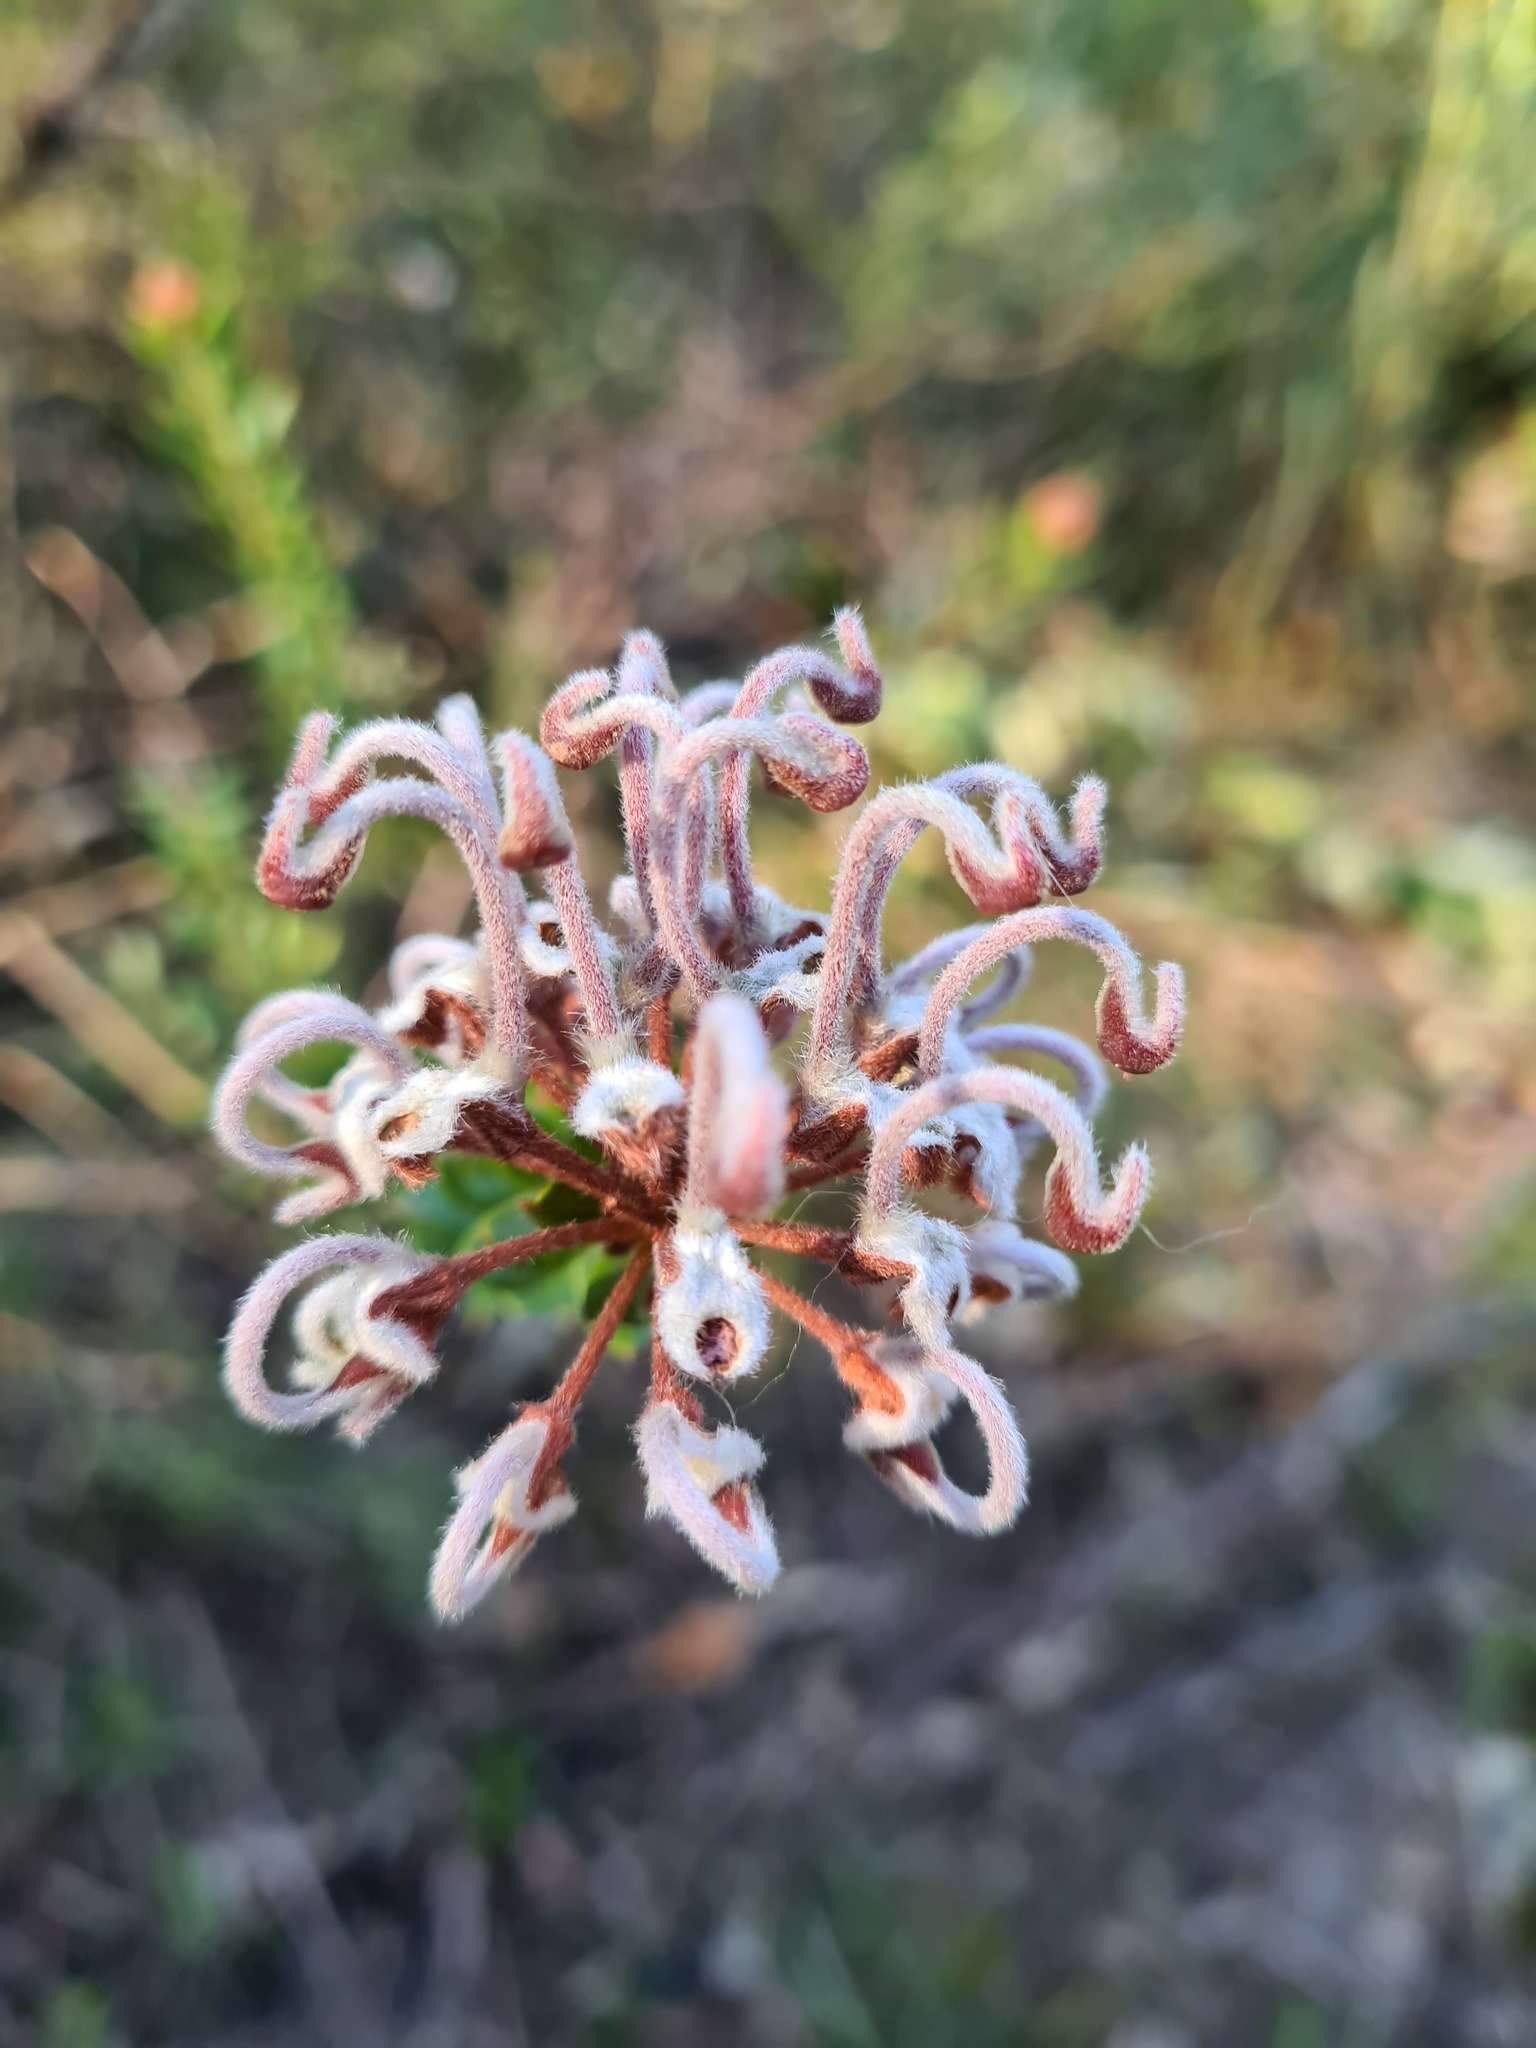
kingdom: Plantae
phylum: Tracheophyta
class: Magnoliopsida
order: Proteales
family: Proteaceae
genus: Grevillea
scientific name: Grevillea buxifolia
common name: Grey spiderflower
